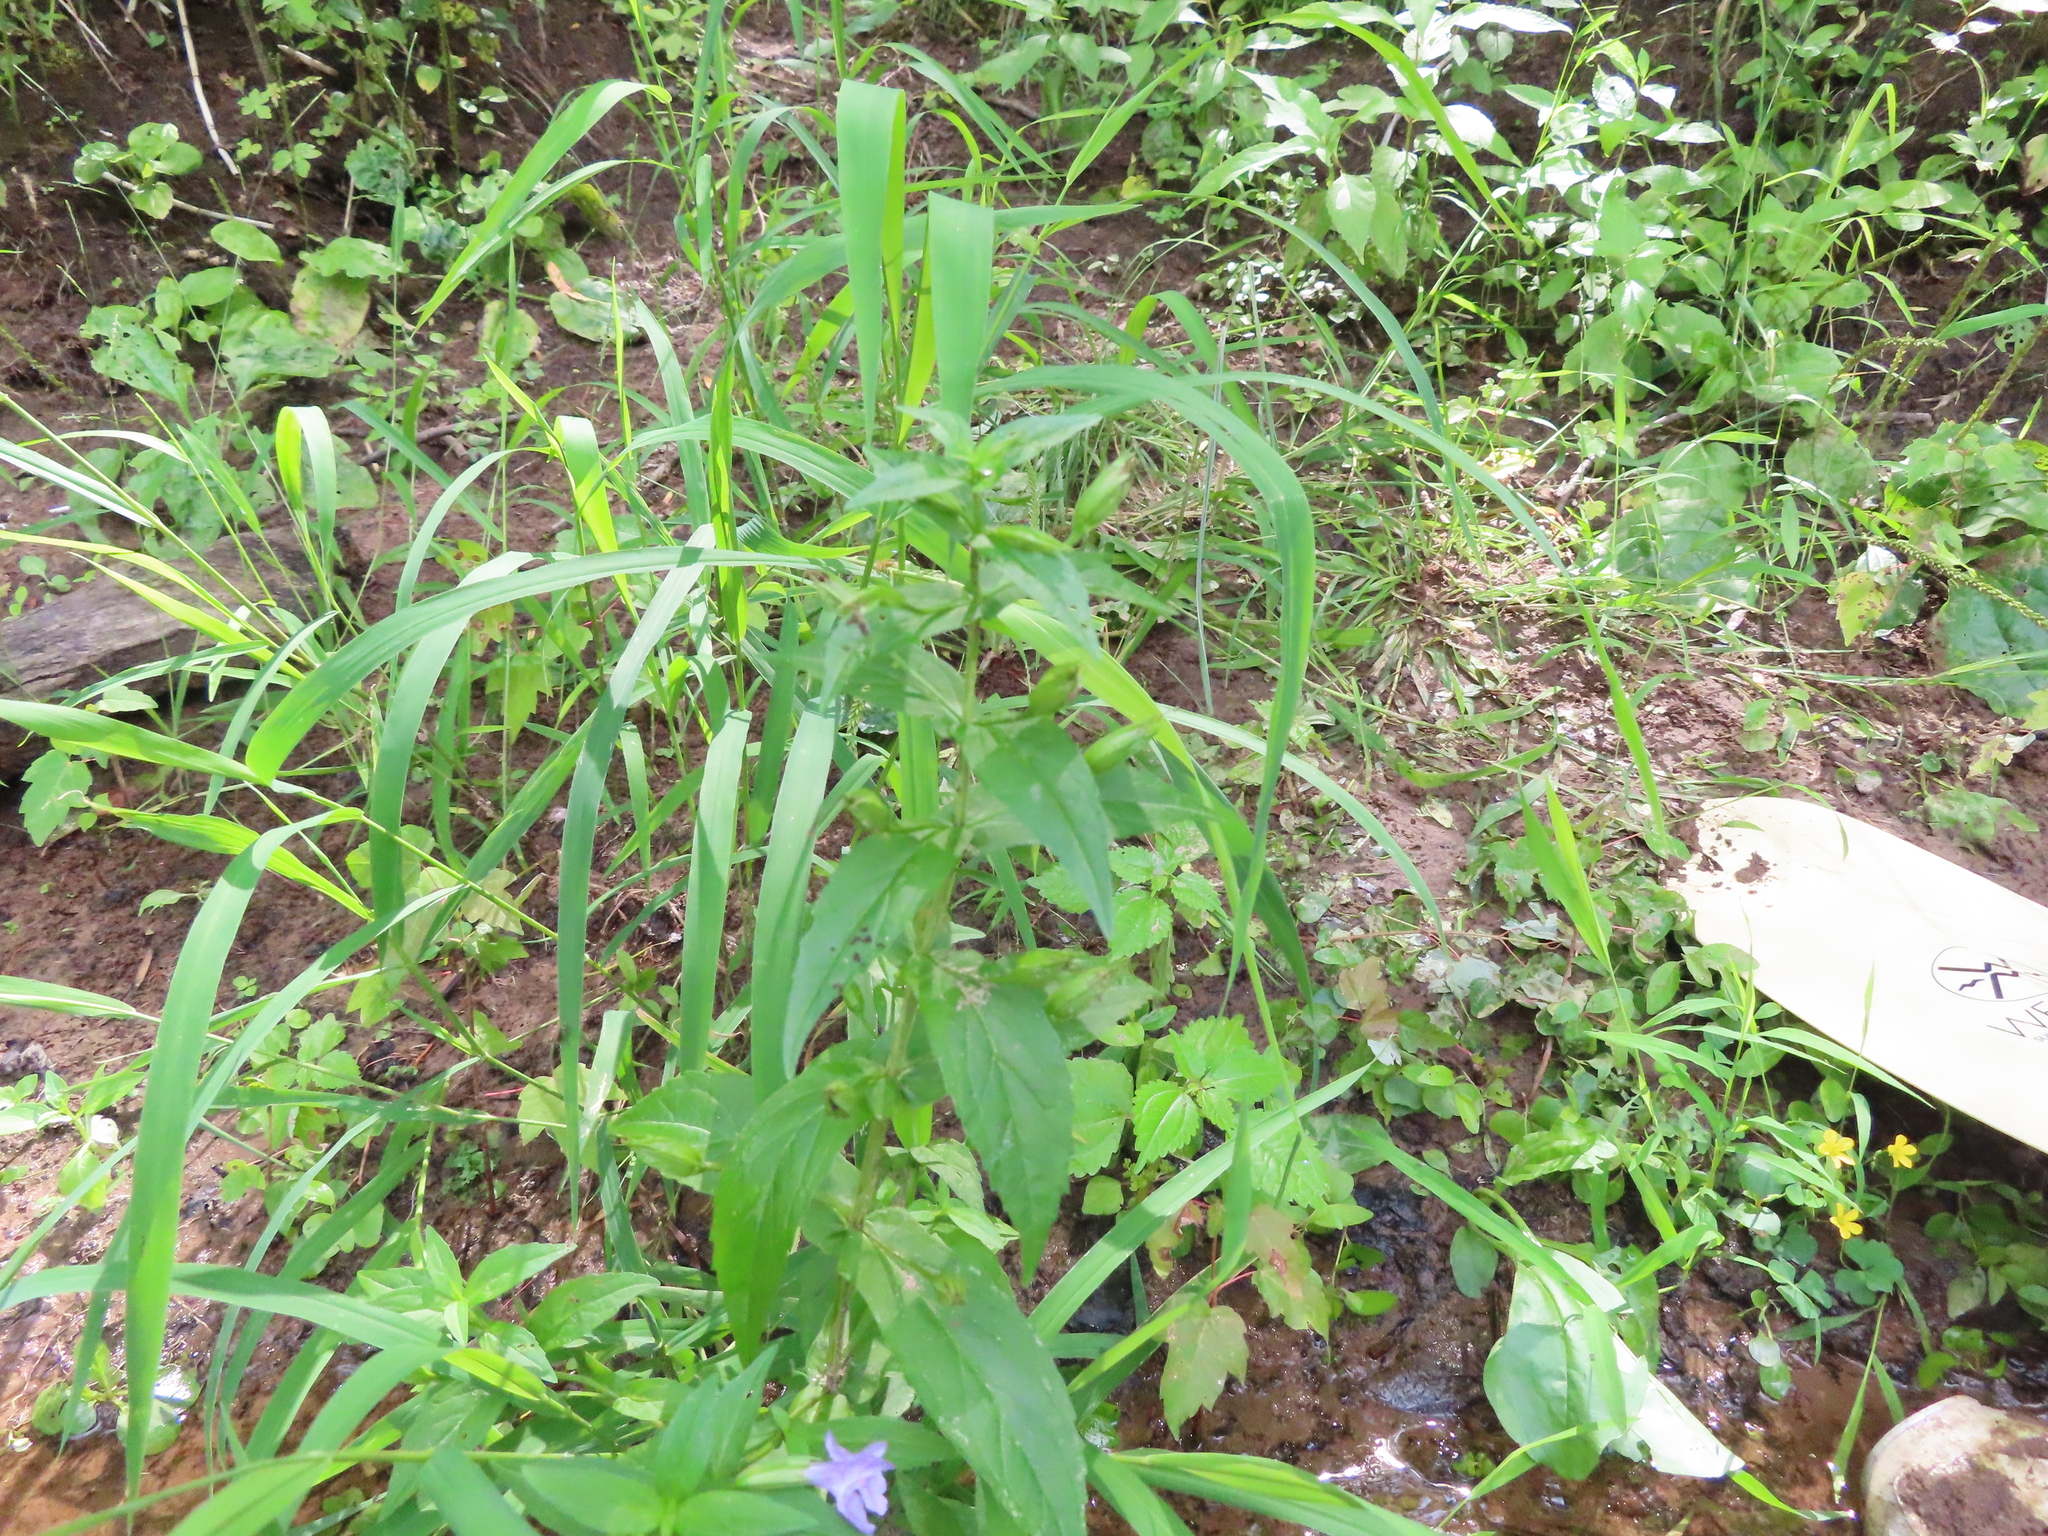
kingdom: Plantae
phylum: Tracheophyta
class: Magnoliopsida
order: Lamiales
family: Phrymaceae
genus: Mimulus
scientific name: Mimulus ringens
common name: Allegheny monkeyflower
